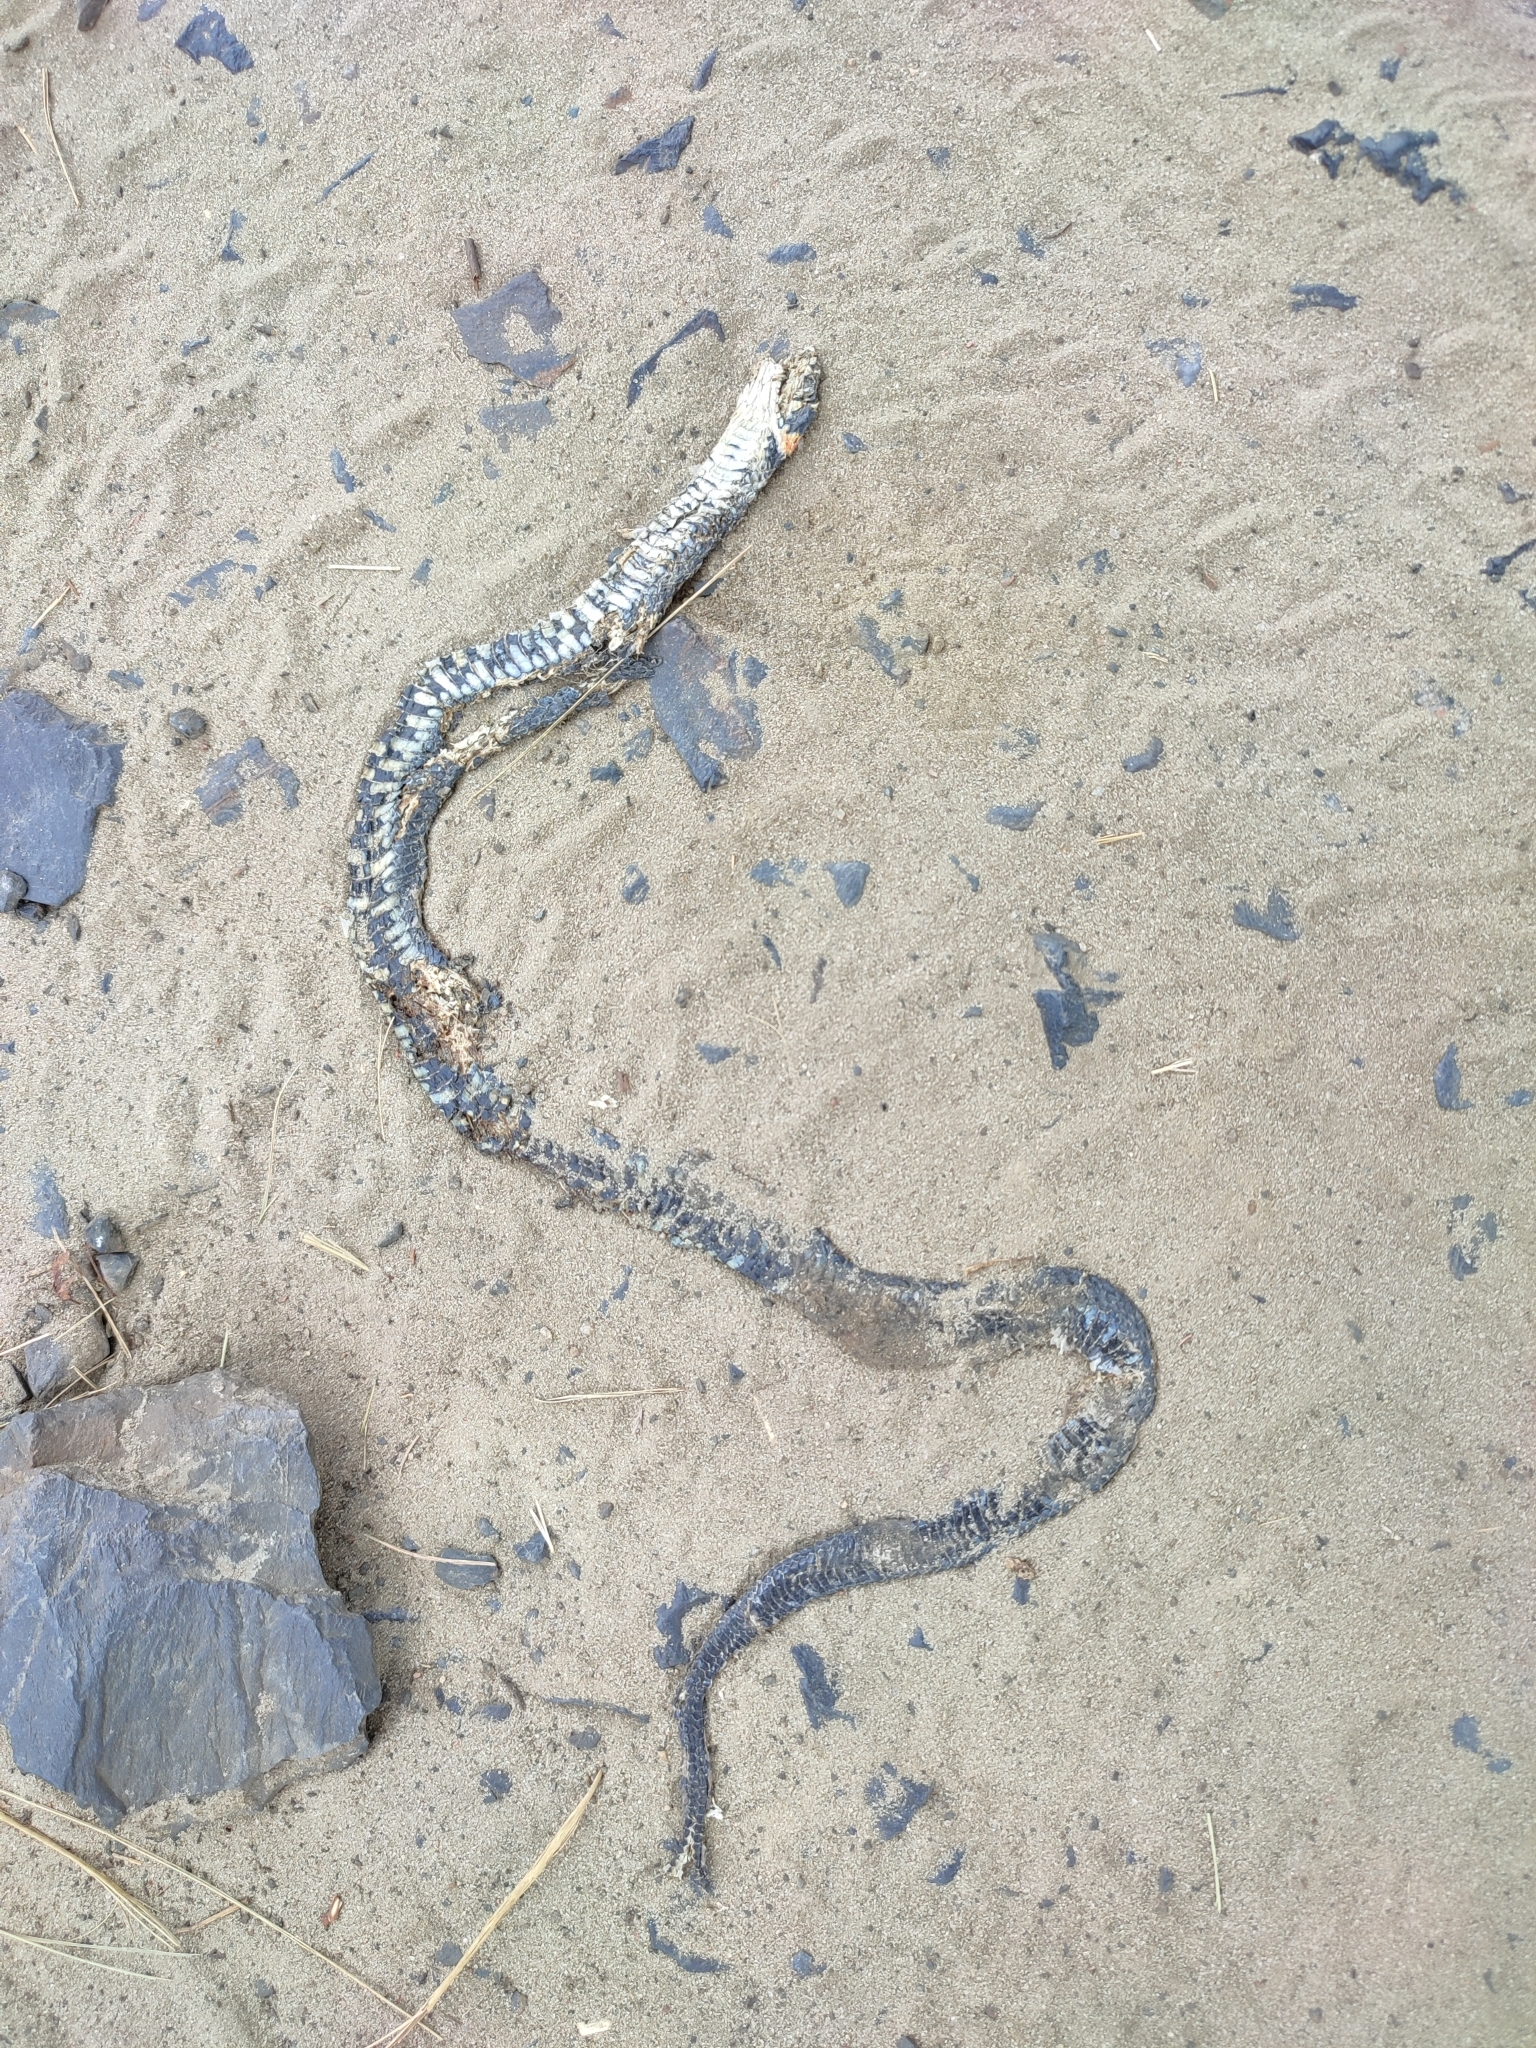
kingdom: Animalia
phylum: Chordata
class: Squamata
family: Colubridae
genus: Natrix
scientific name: Natrix natrix
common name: Grass snake
